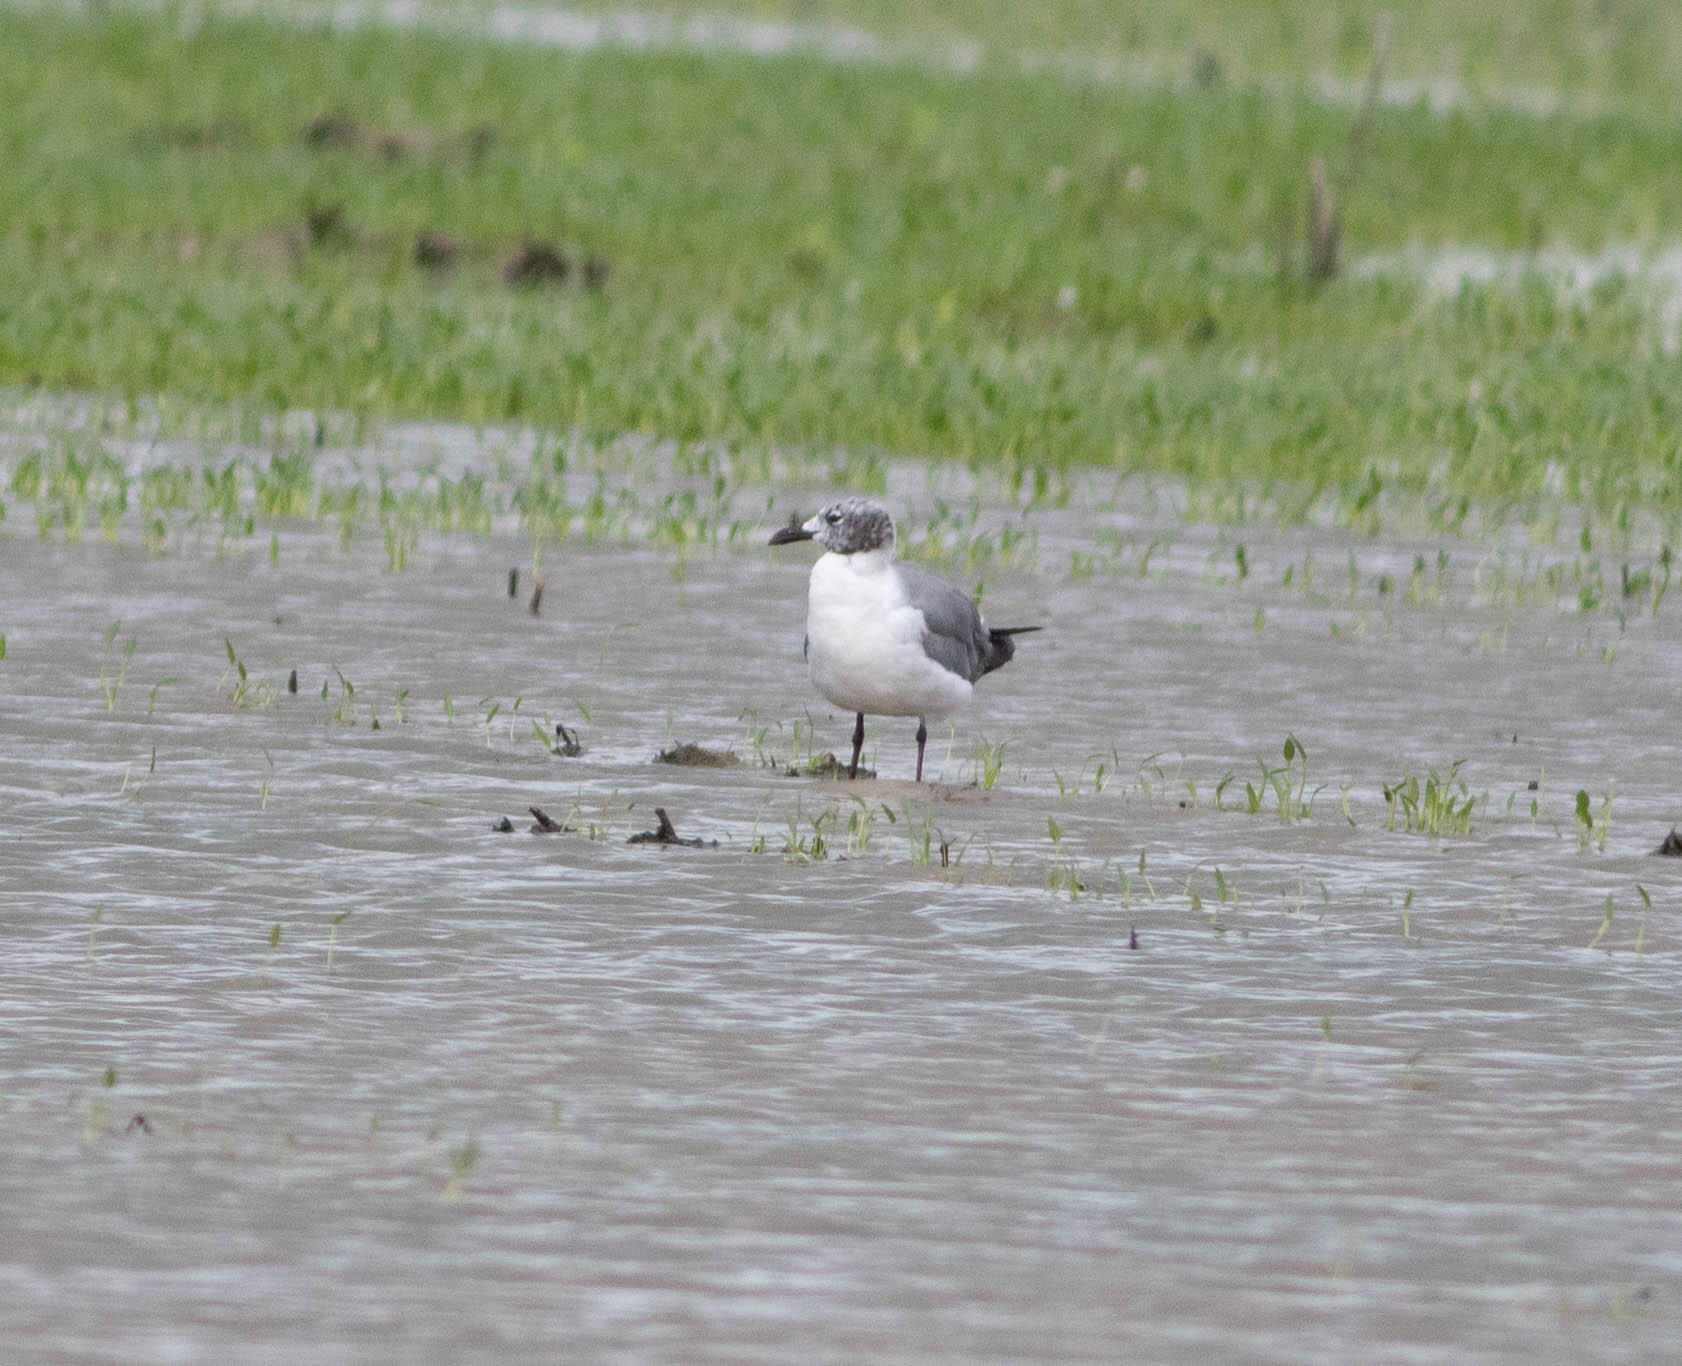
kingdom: Animalia
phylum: Chordata
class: Aves
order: Charadriiformes
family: Laridae
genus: Leucophaeus
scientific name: Leucophaeus atricilla
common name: Laughing gull
